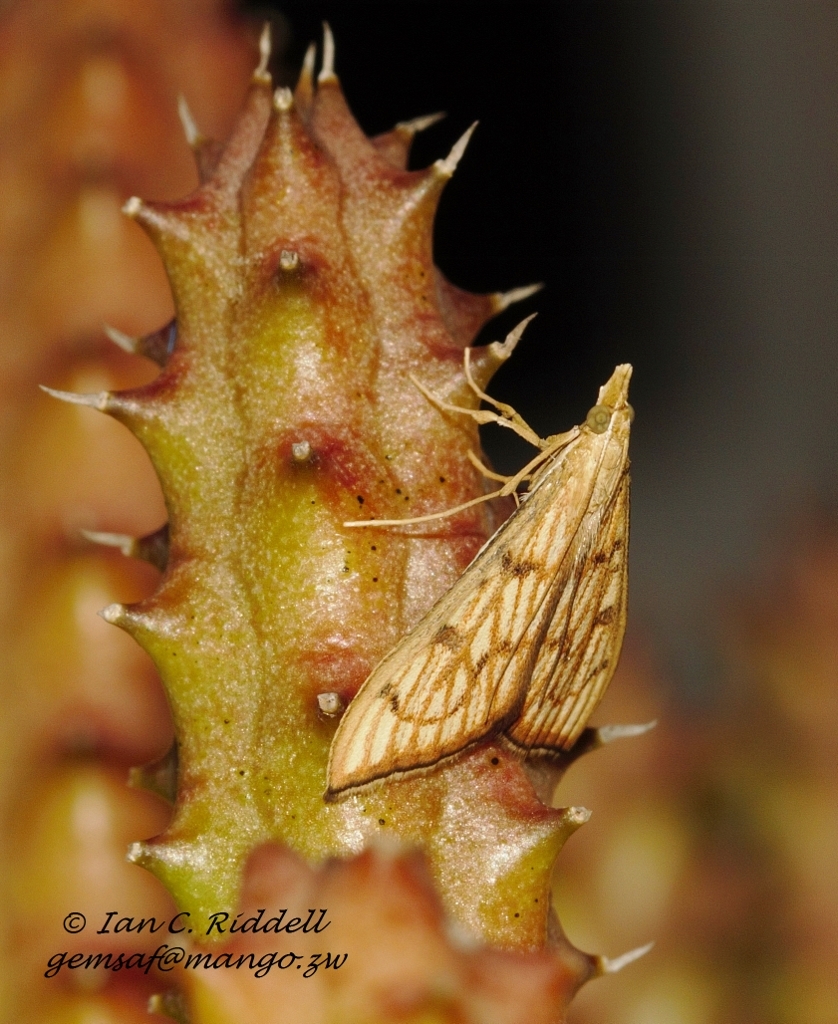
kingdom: Animalia
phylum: Arthropoda
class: Insecta
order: Lepidoptera
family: Crambidae
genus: Antigastra
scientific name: Antigastra catalaunalis
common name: Spanish dot
